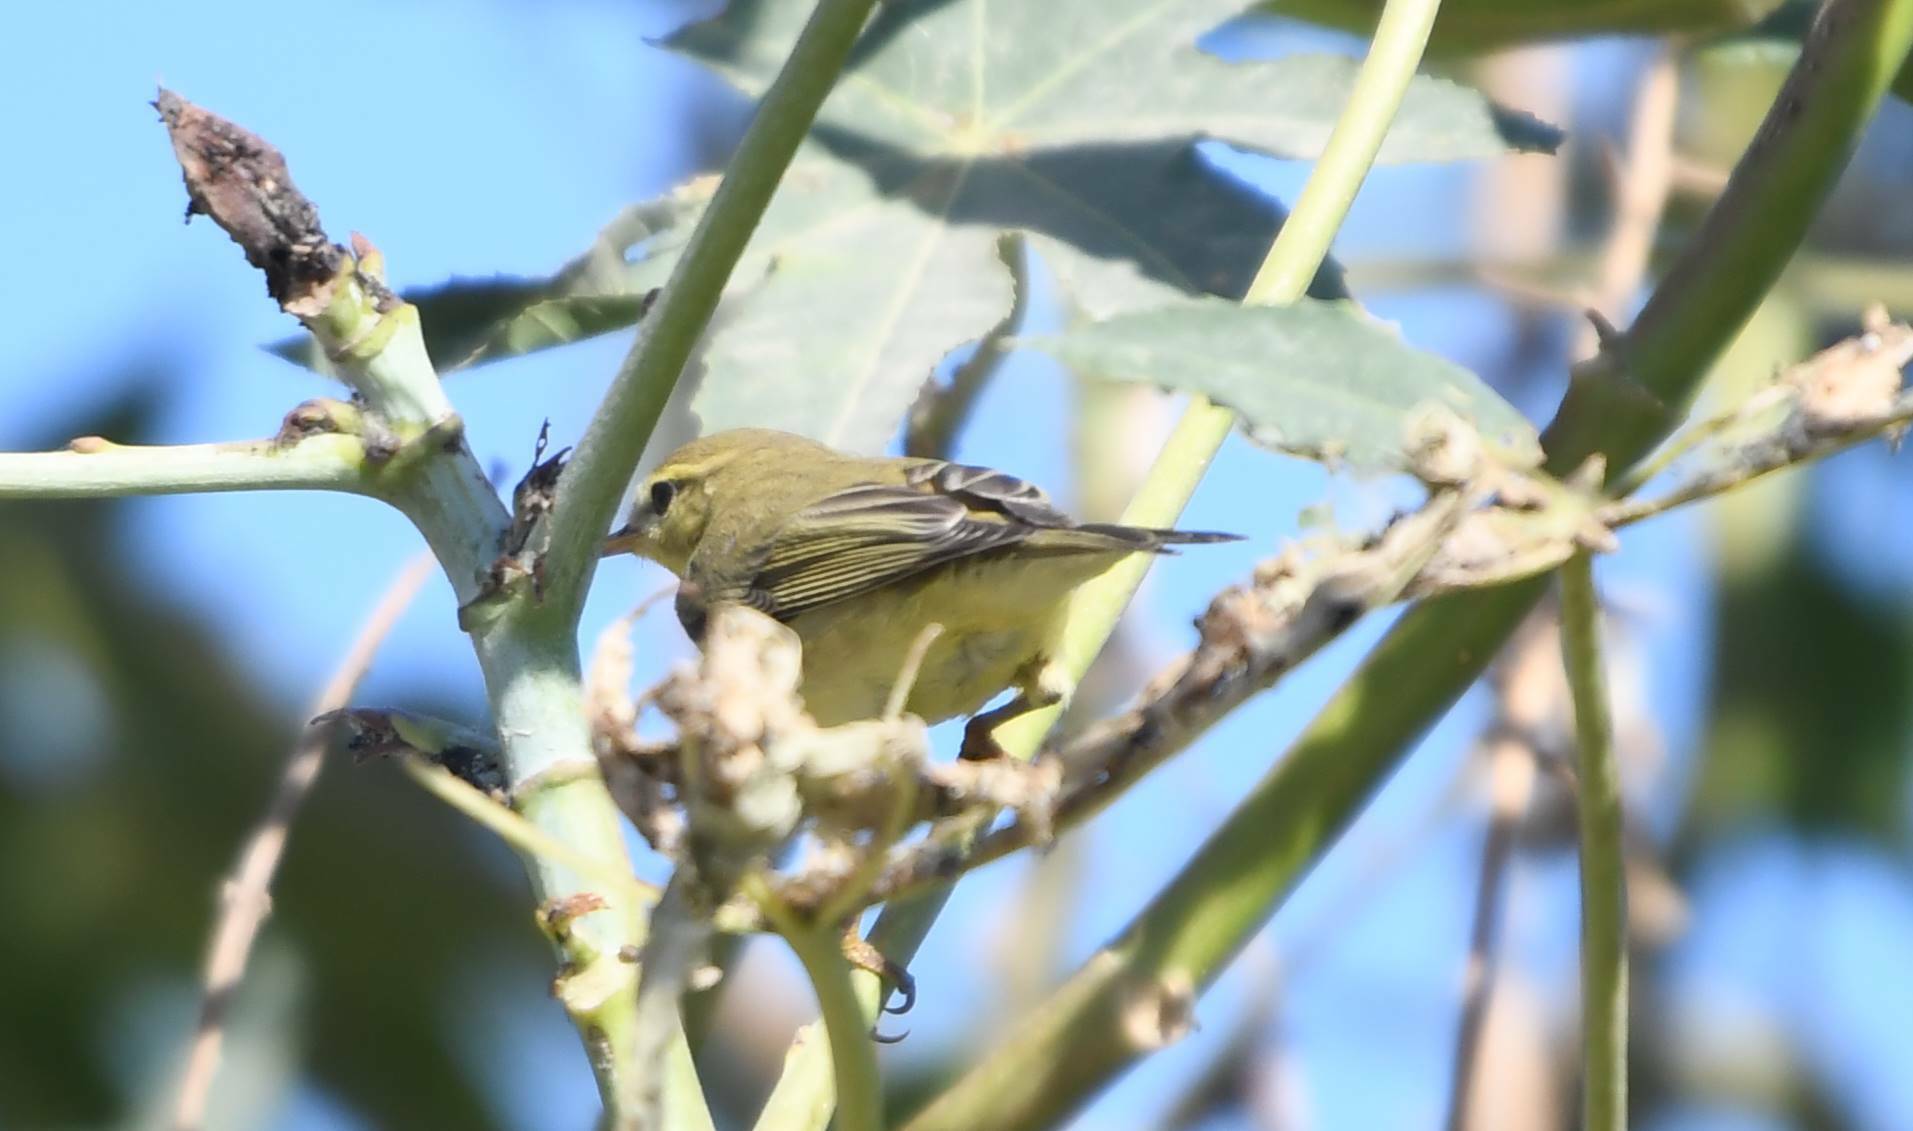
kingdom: Animalia
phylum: Chordata
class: Aves
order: Passeriformes
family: Phylloscopidae
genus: Phylloscopus
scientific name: Phylloscopus trochilus
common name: Willow warbler
